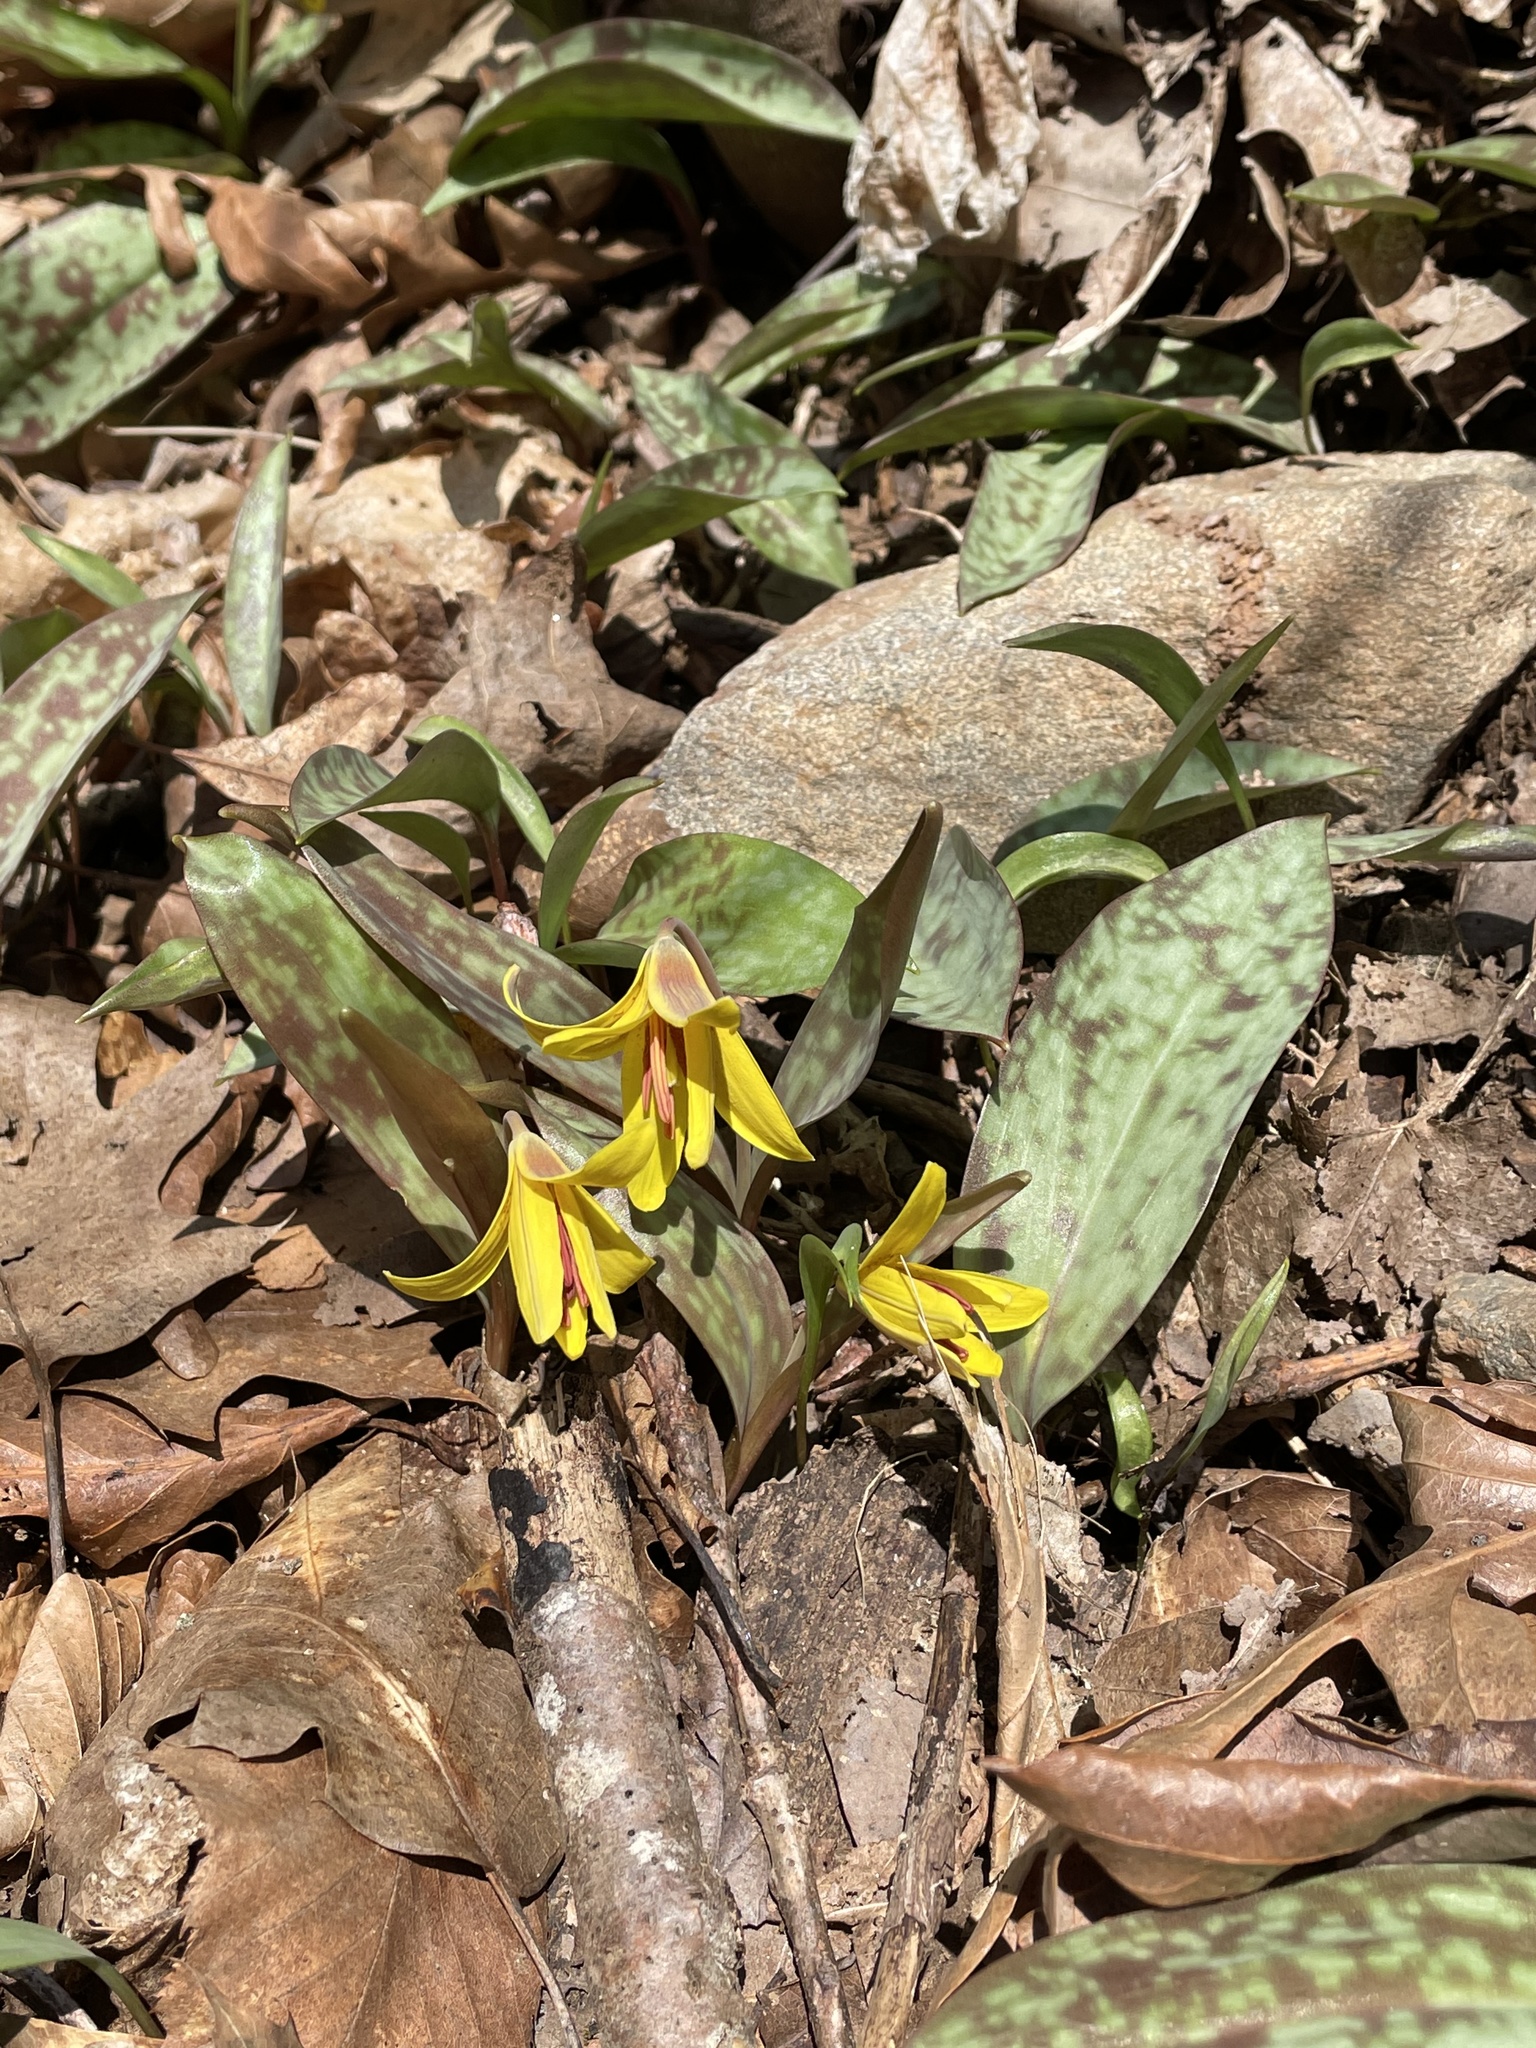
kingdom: Plantae
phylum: Tracheophyta
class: Liliopsida
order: Liliales
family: Liliaceae
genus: Erythronium
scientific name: Erythronium americanum
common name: Yellow adder's-tongue
